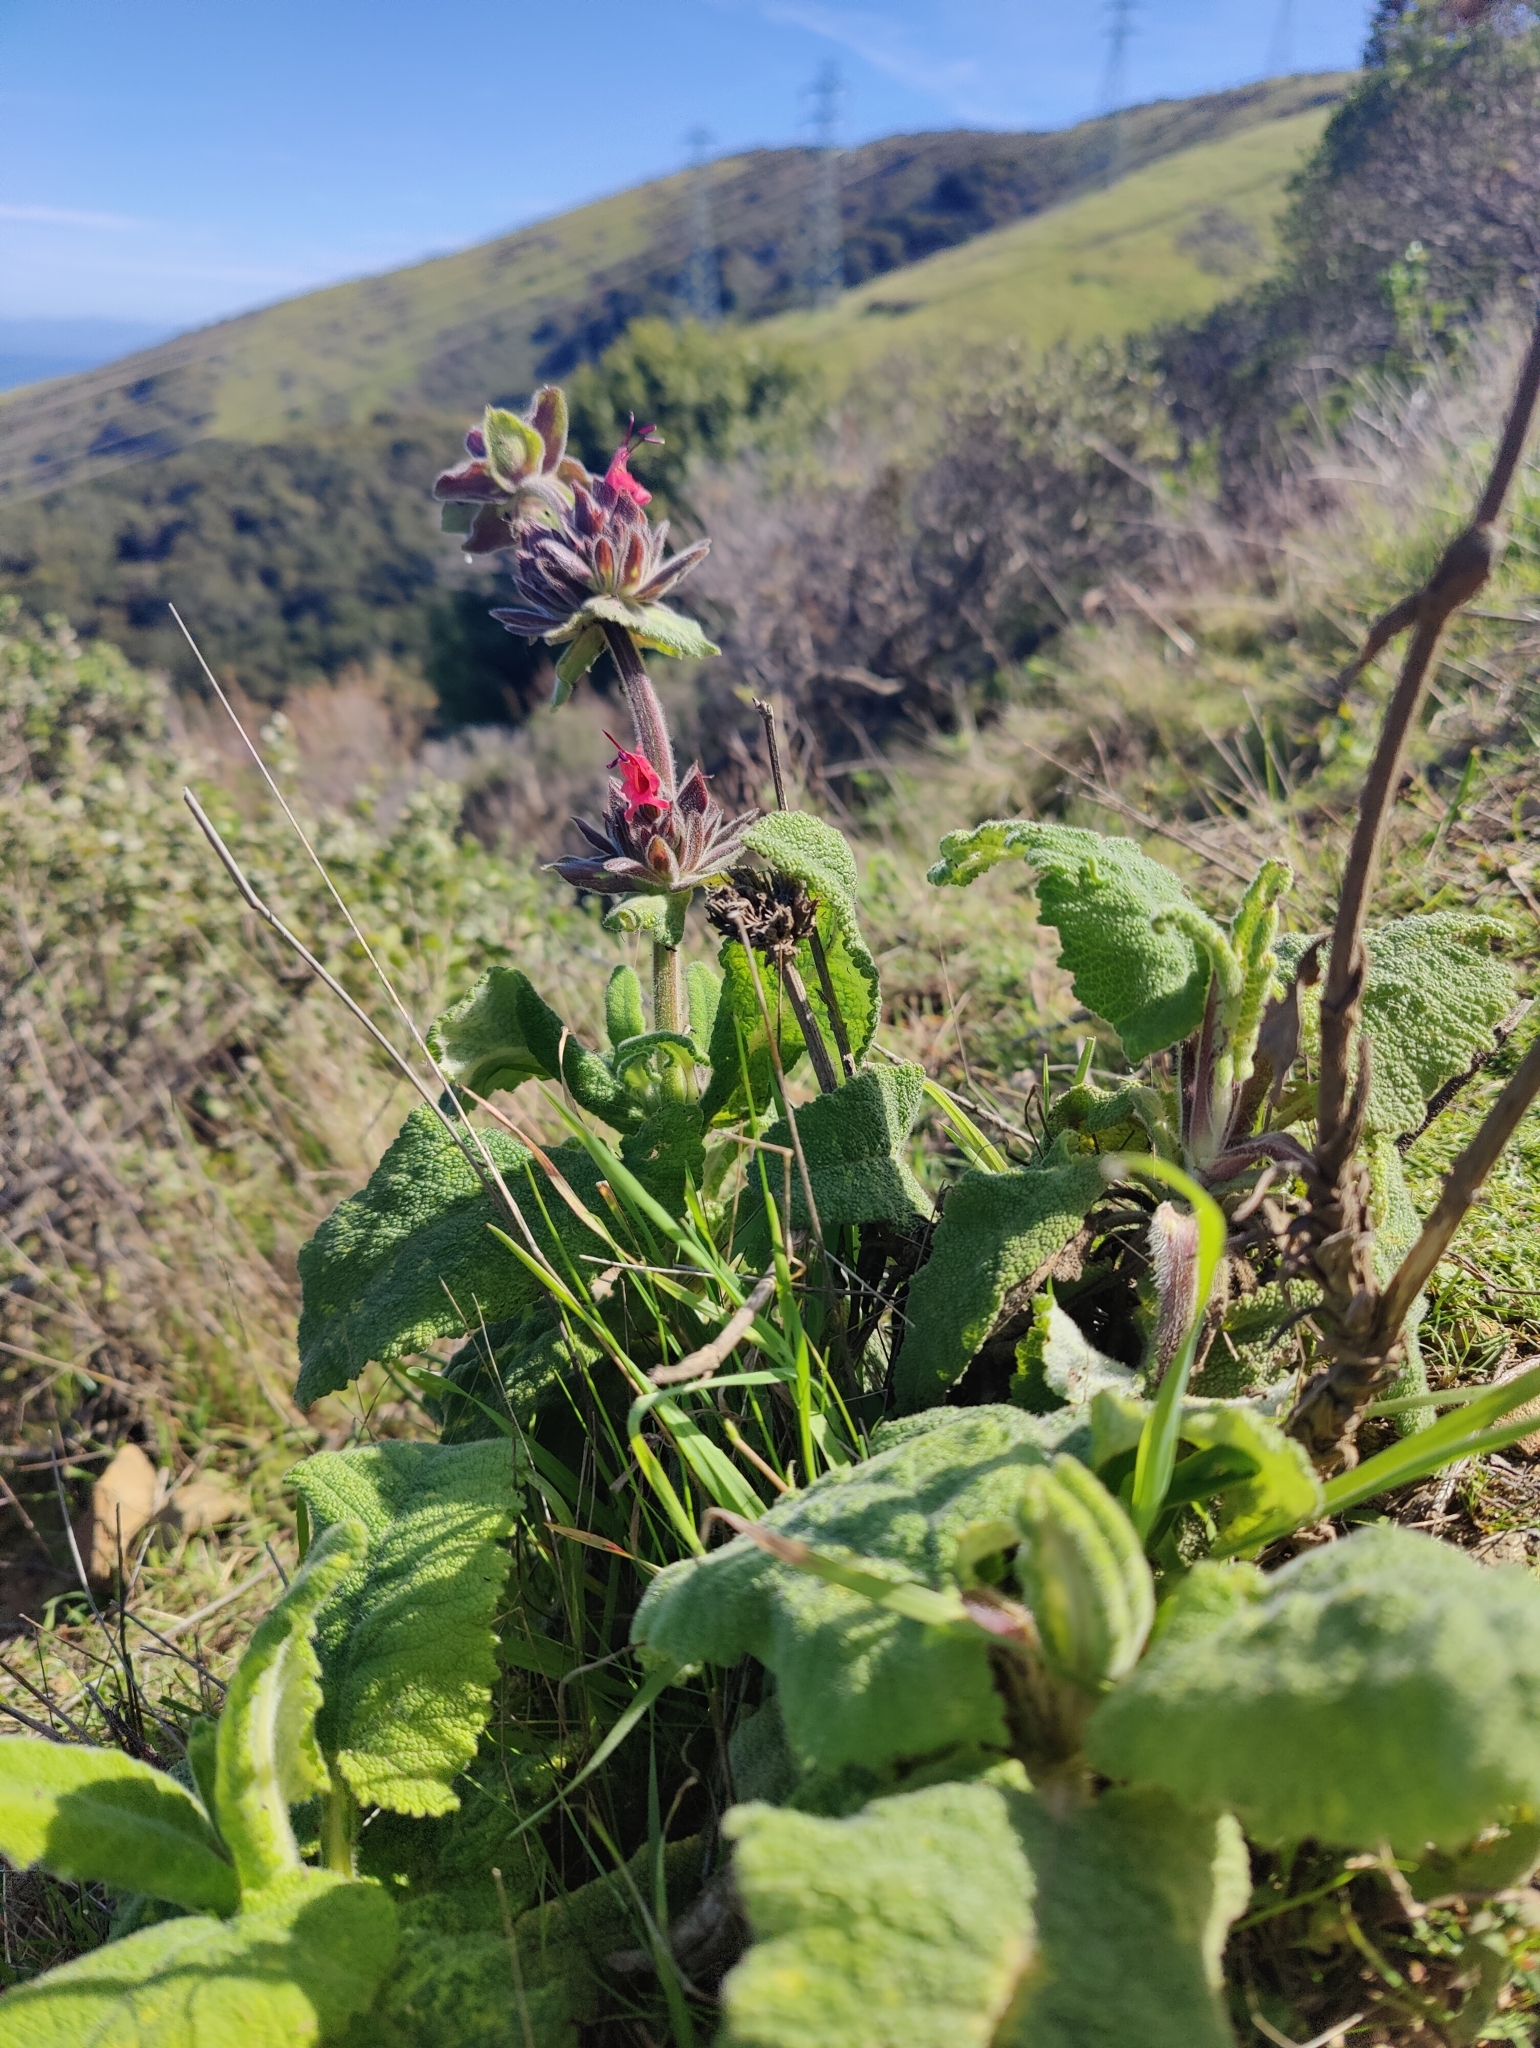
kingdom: Plantae
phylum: Tracheophyta
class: Magnoliopsida
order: Lamiales
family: Lamiaceae
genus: Salvia
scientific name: Salvia spathacea
